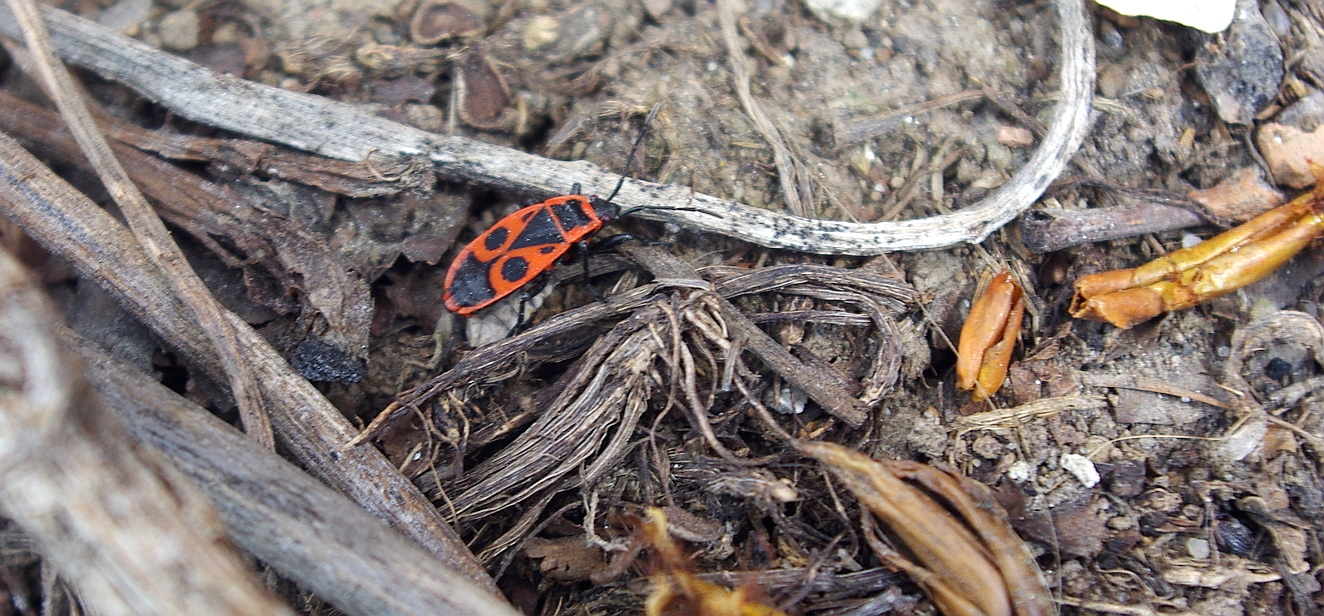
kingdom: Animalia
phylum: Arthropoda
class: Insecta
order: Hemiptera
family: Pyrrhocoridae
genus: Pyrrhocoris
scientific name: Pyrrhocoris apterus
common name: Firebug
